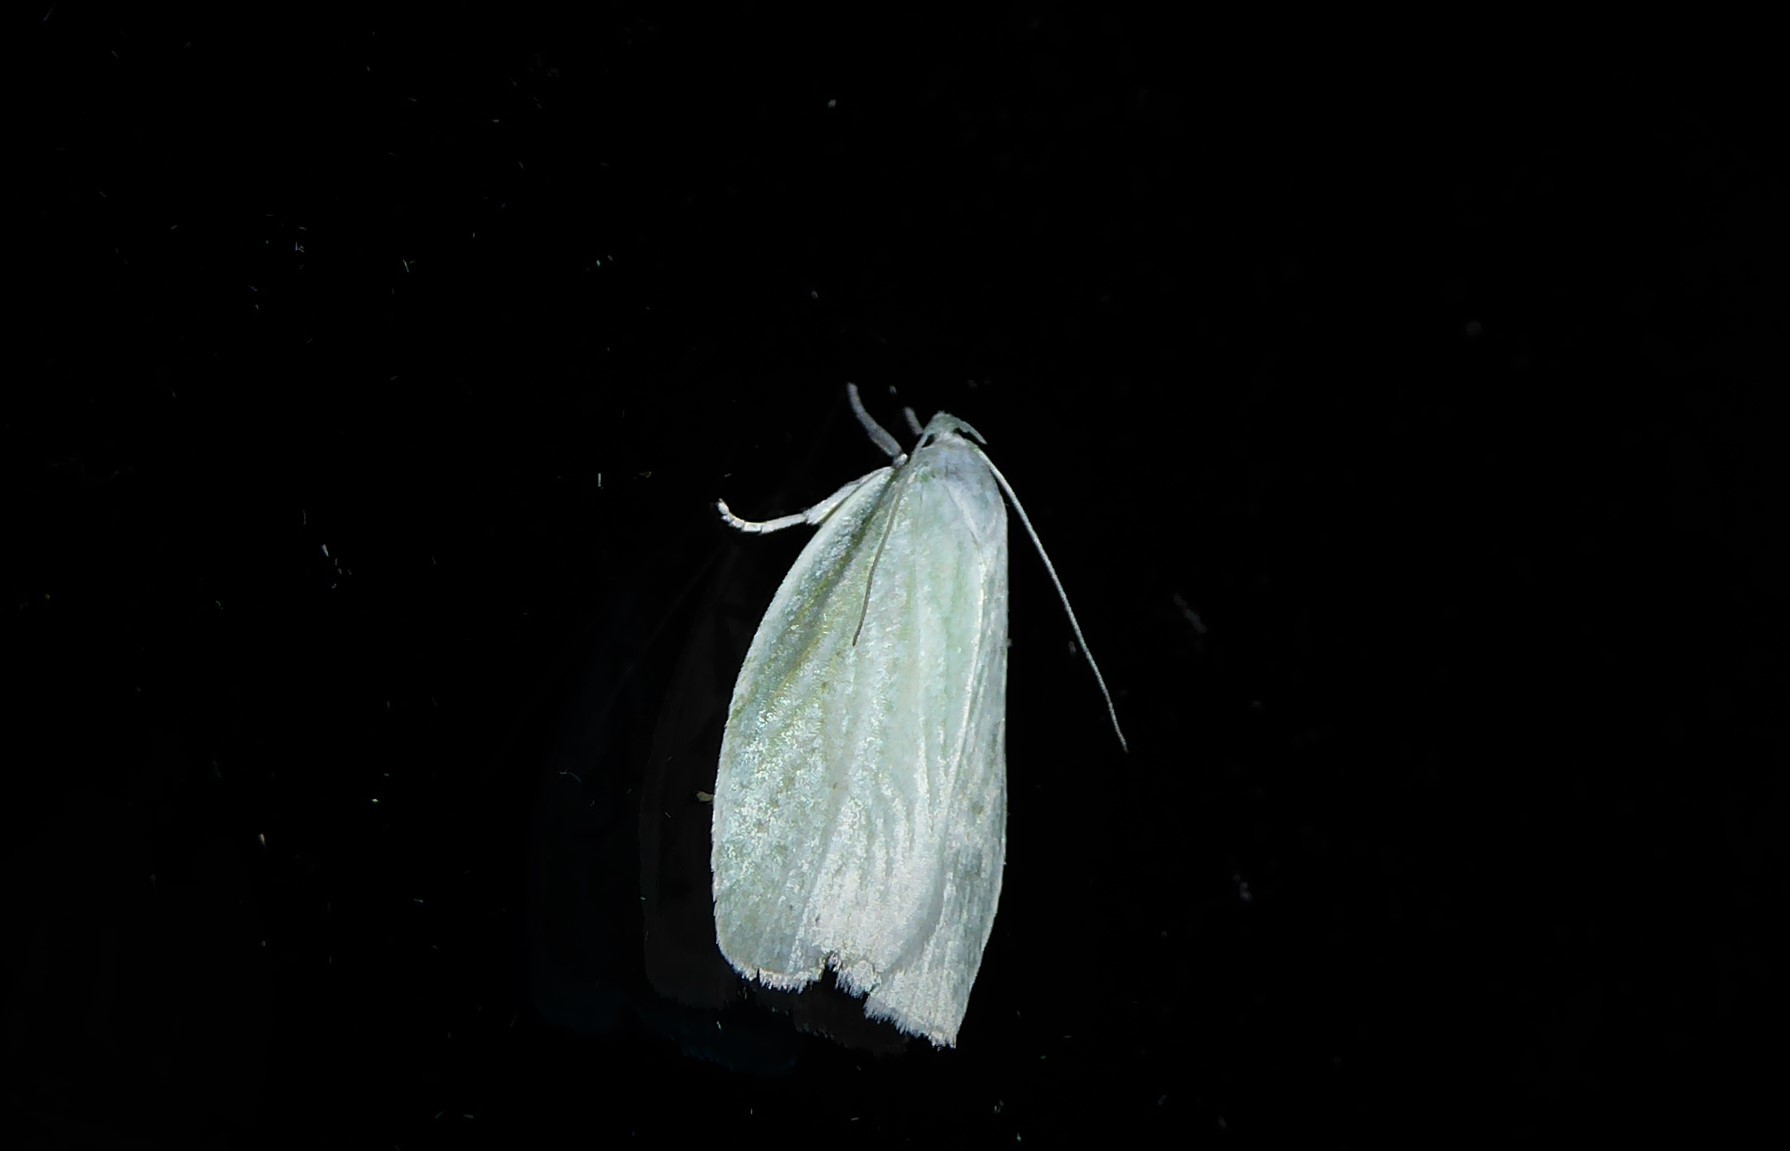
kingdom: Animalia
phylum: Arthropoda
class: Insecta
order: Lepidoptera
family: Oecophoridae
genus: Nymphostola
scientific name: Nymphostola galactina
